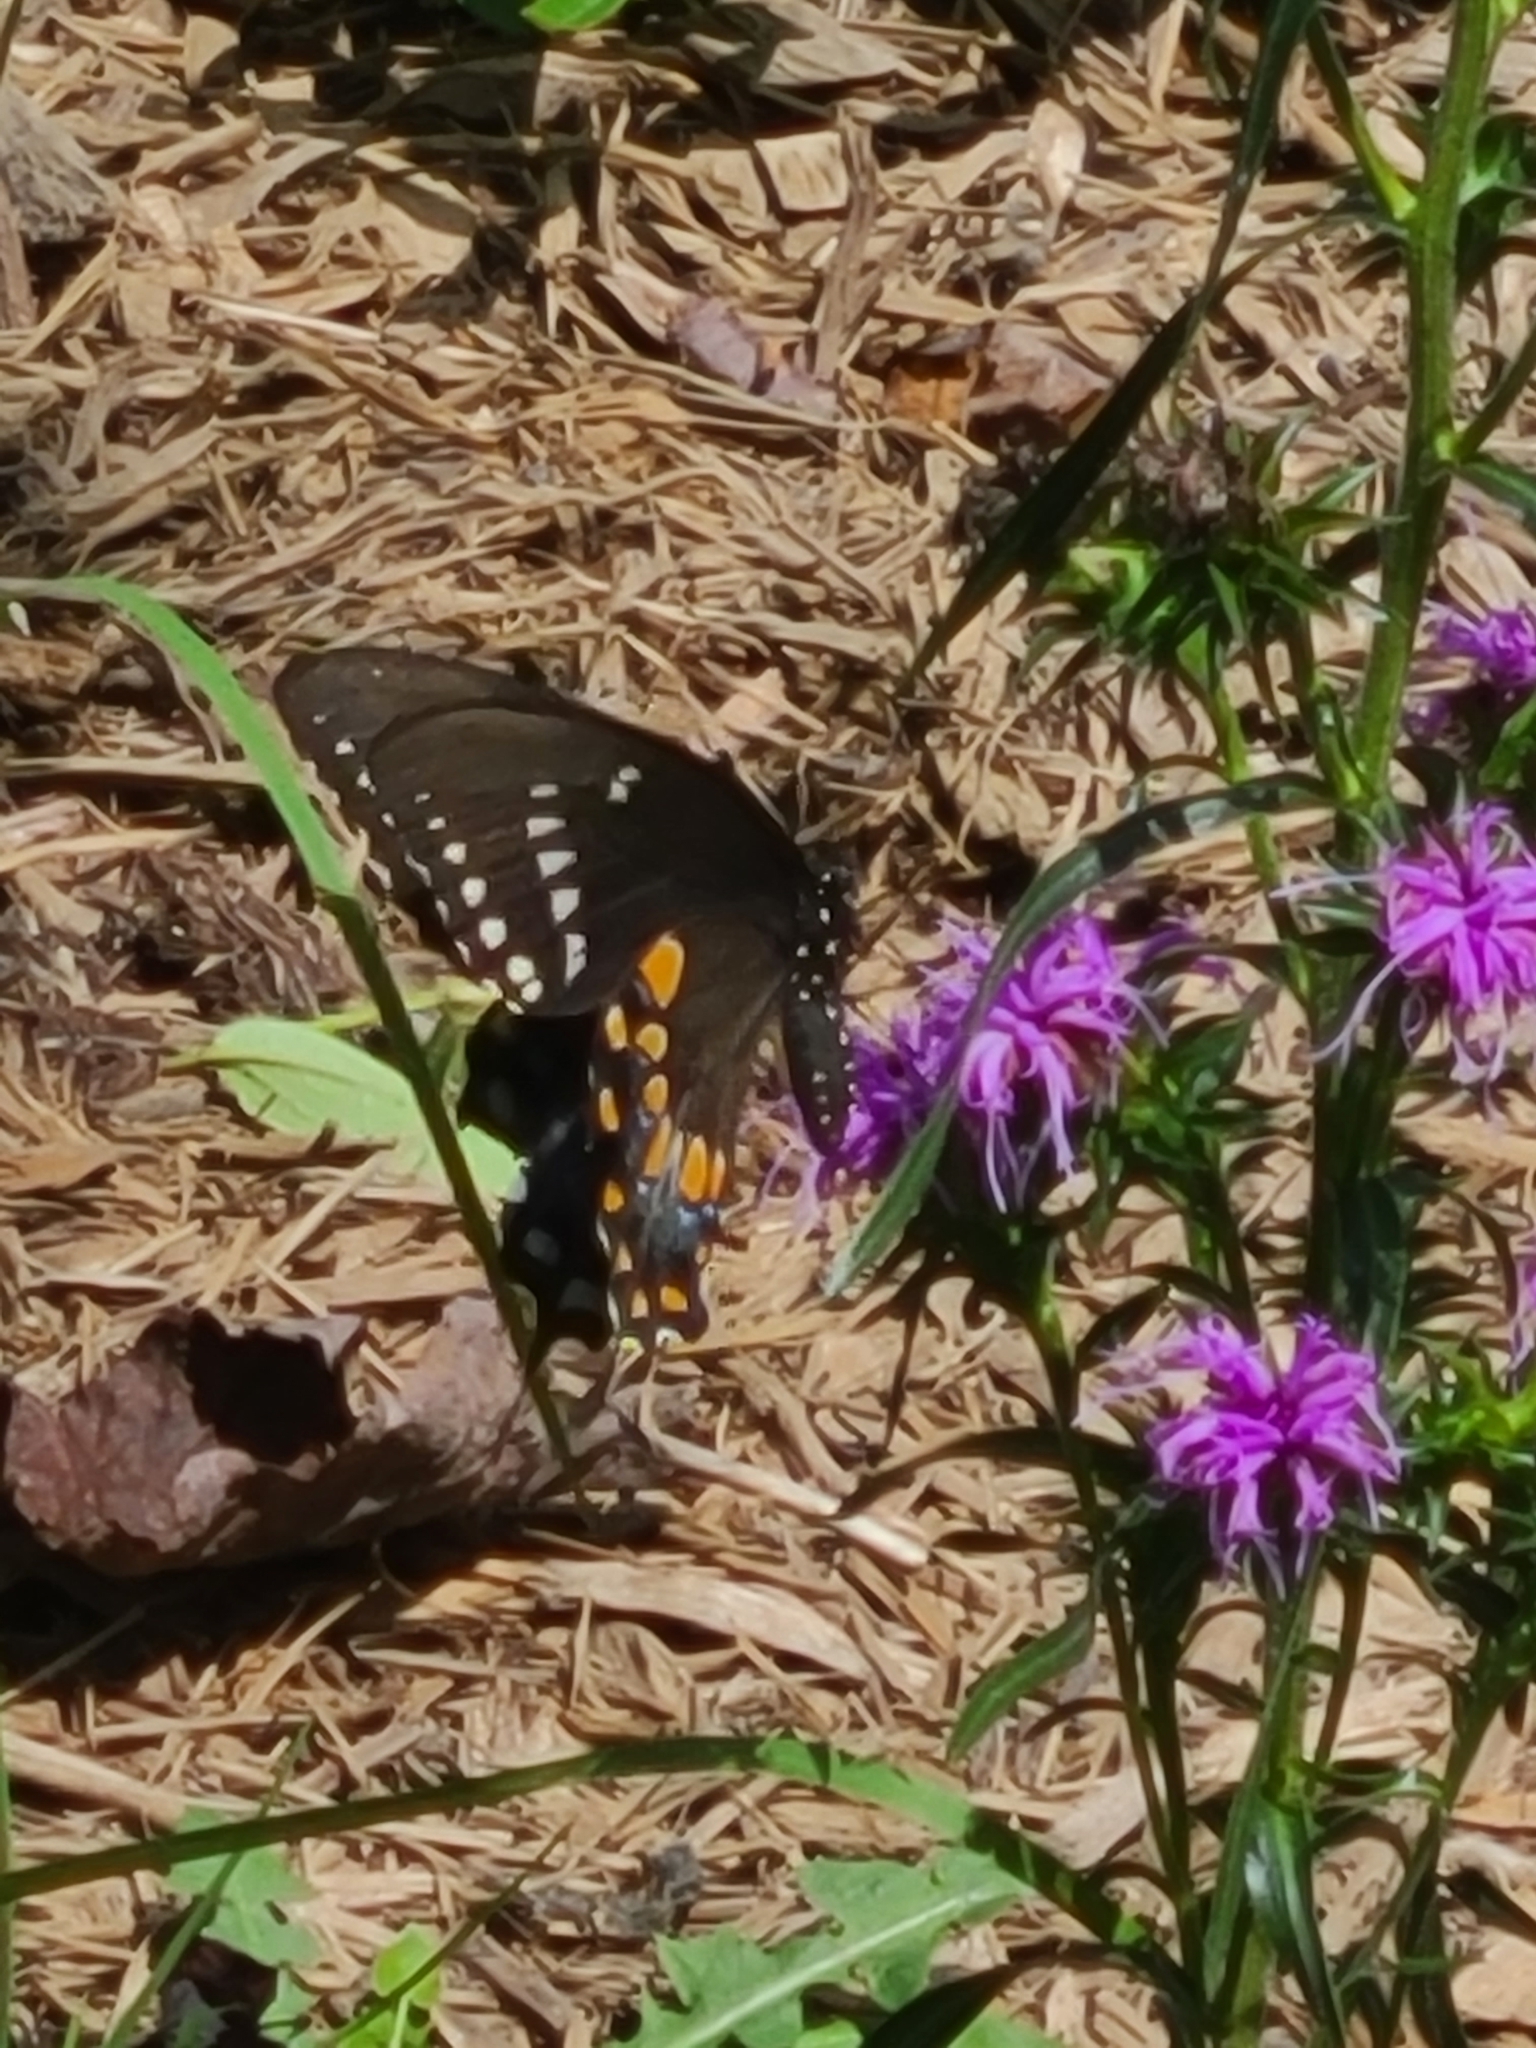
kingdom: Animalia
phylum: Arthropoda
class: Insecta
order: Lepidoptera
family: Papilionidae
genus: Papilio
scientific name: Papilio troilus
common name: Spicebush swallowtail
